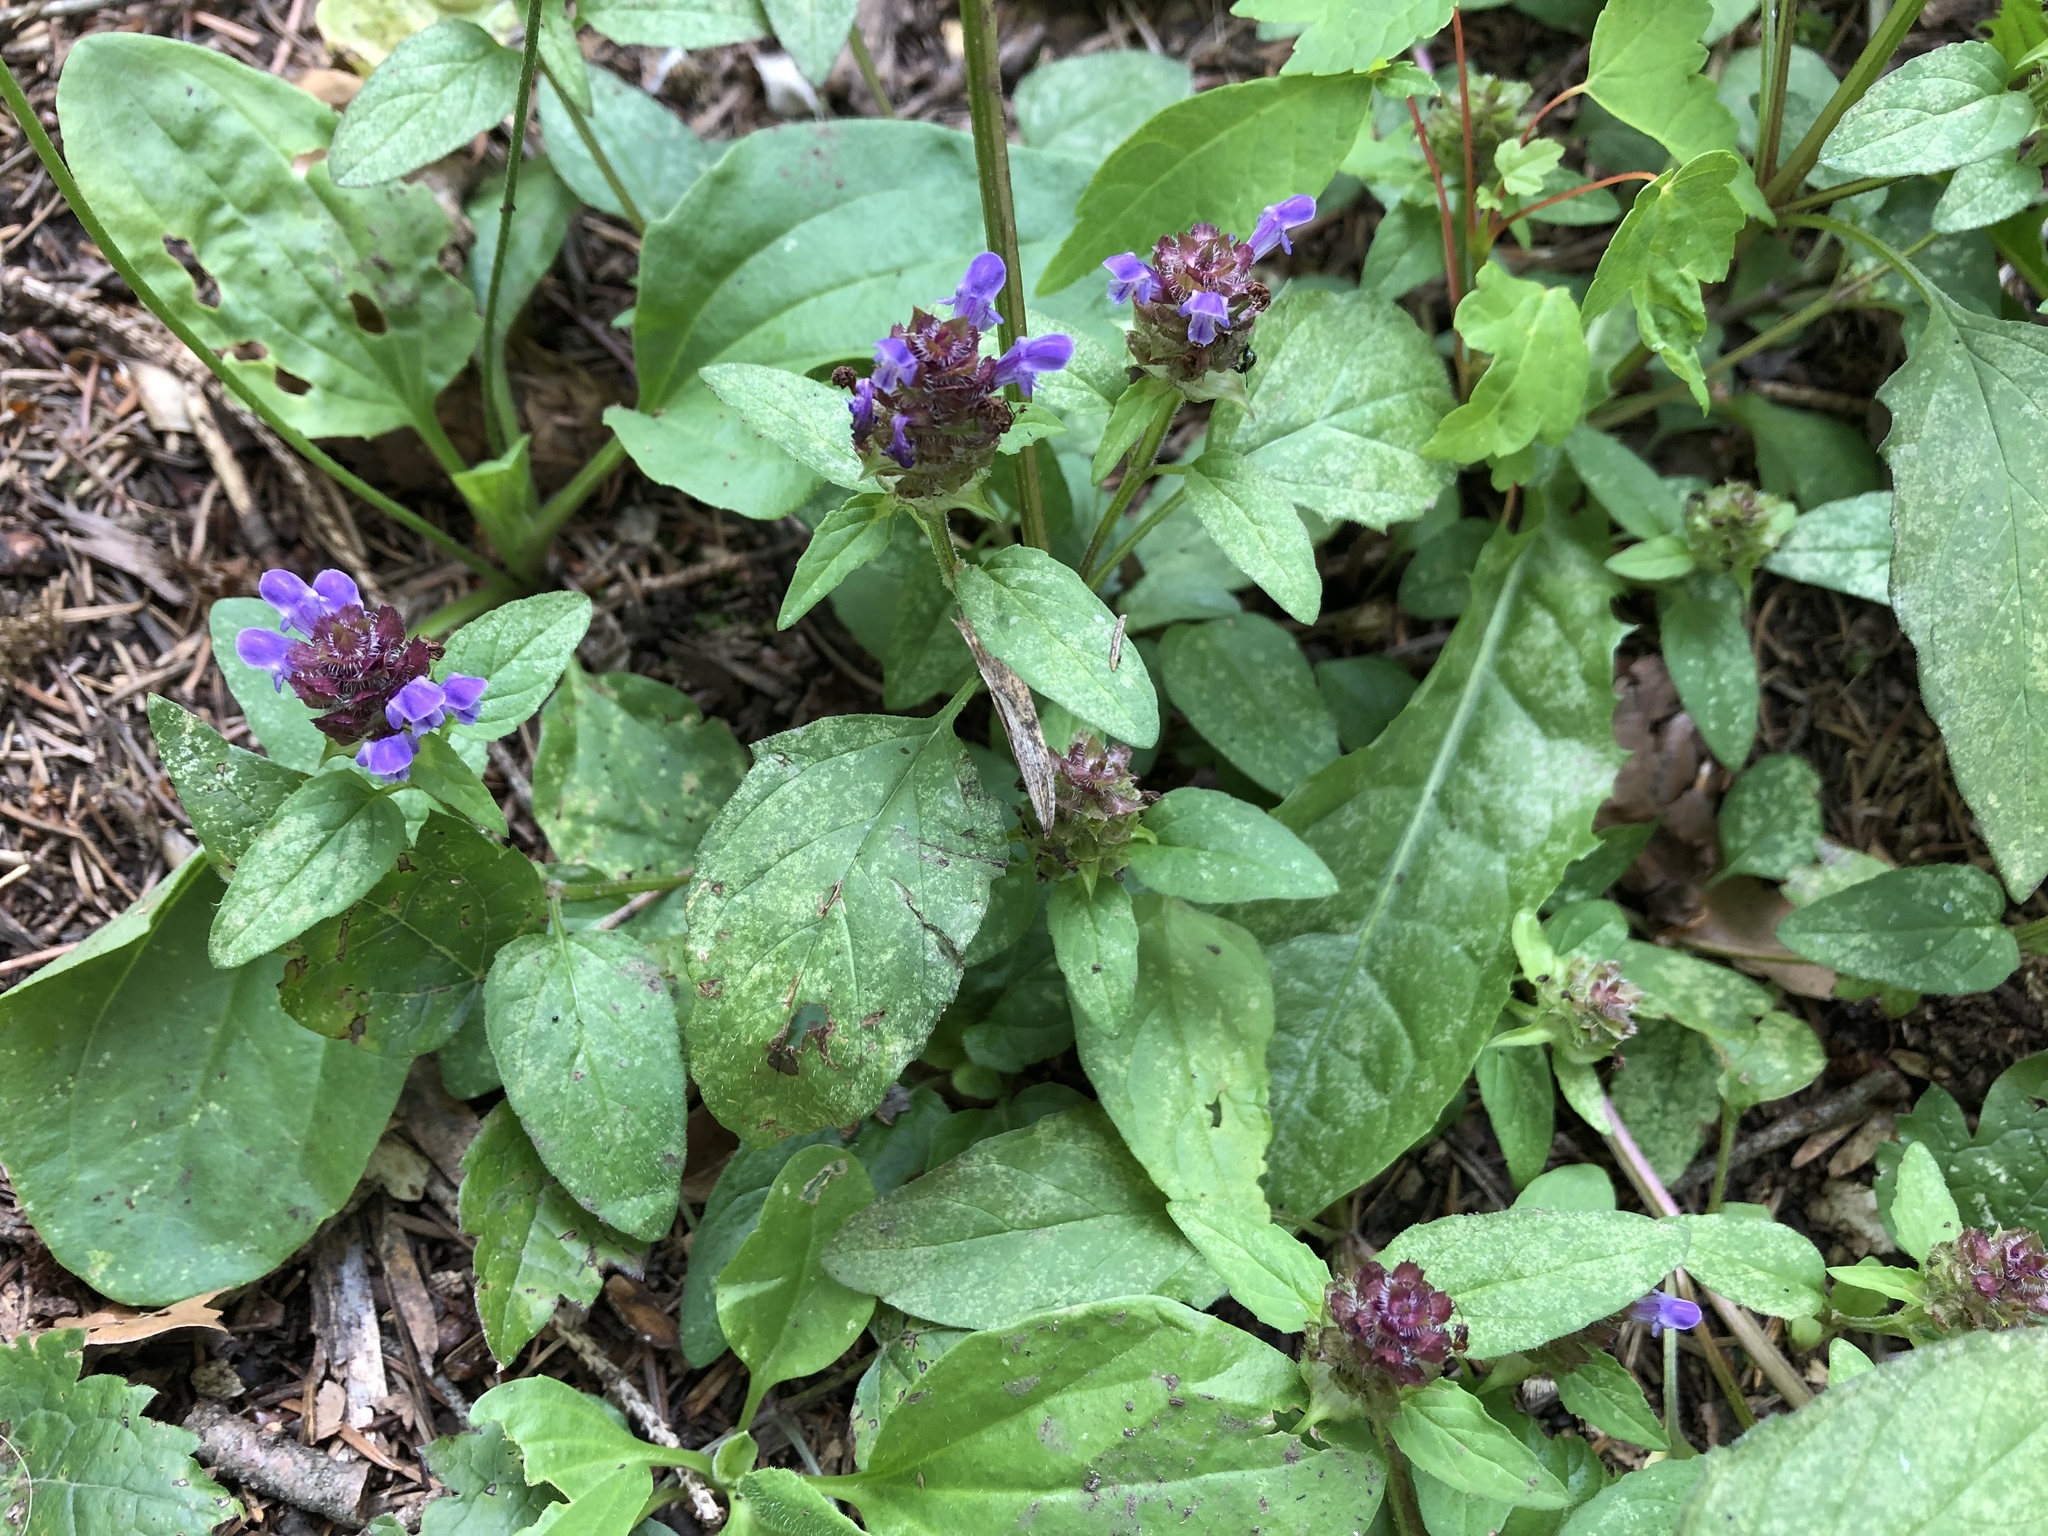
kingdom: Plantae
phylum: Tracheophyta
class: Magnoliopsida
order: Lamiales
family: Lamiaceae
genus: Prunella
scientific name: Prunella vulgaris
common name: Heal-all
